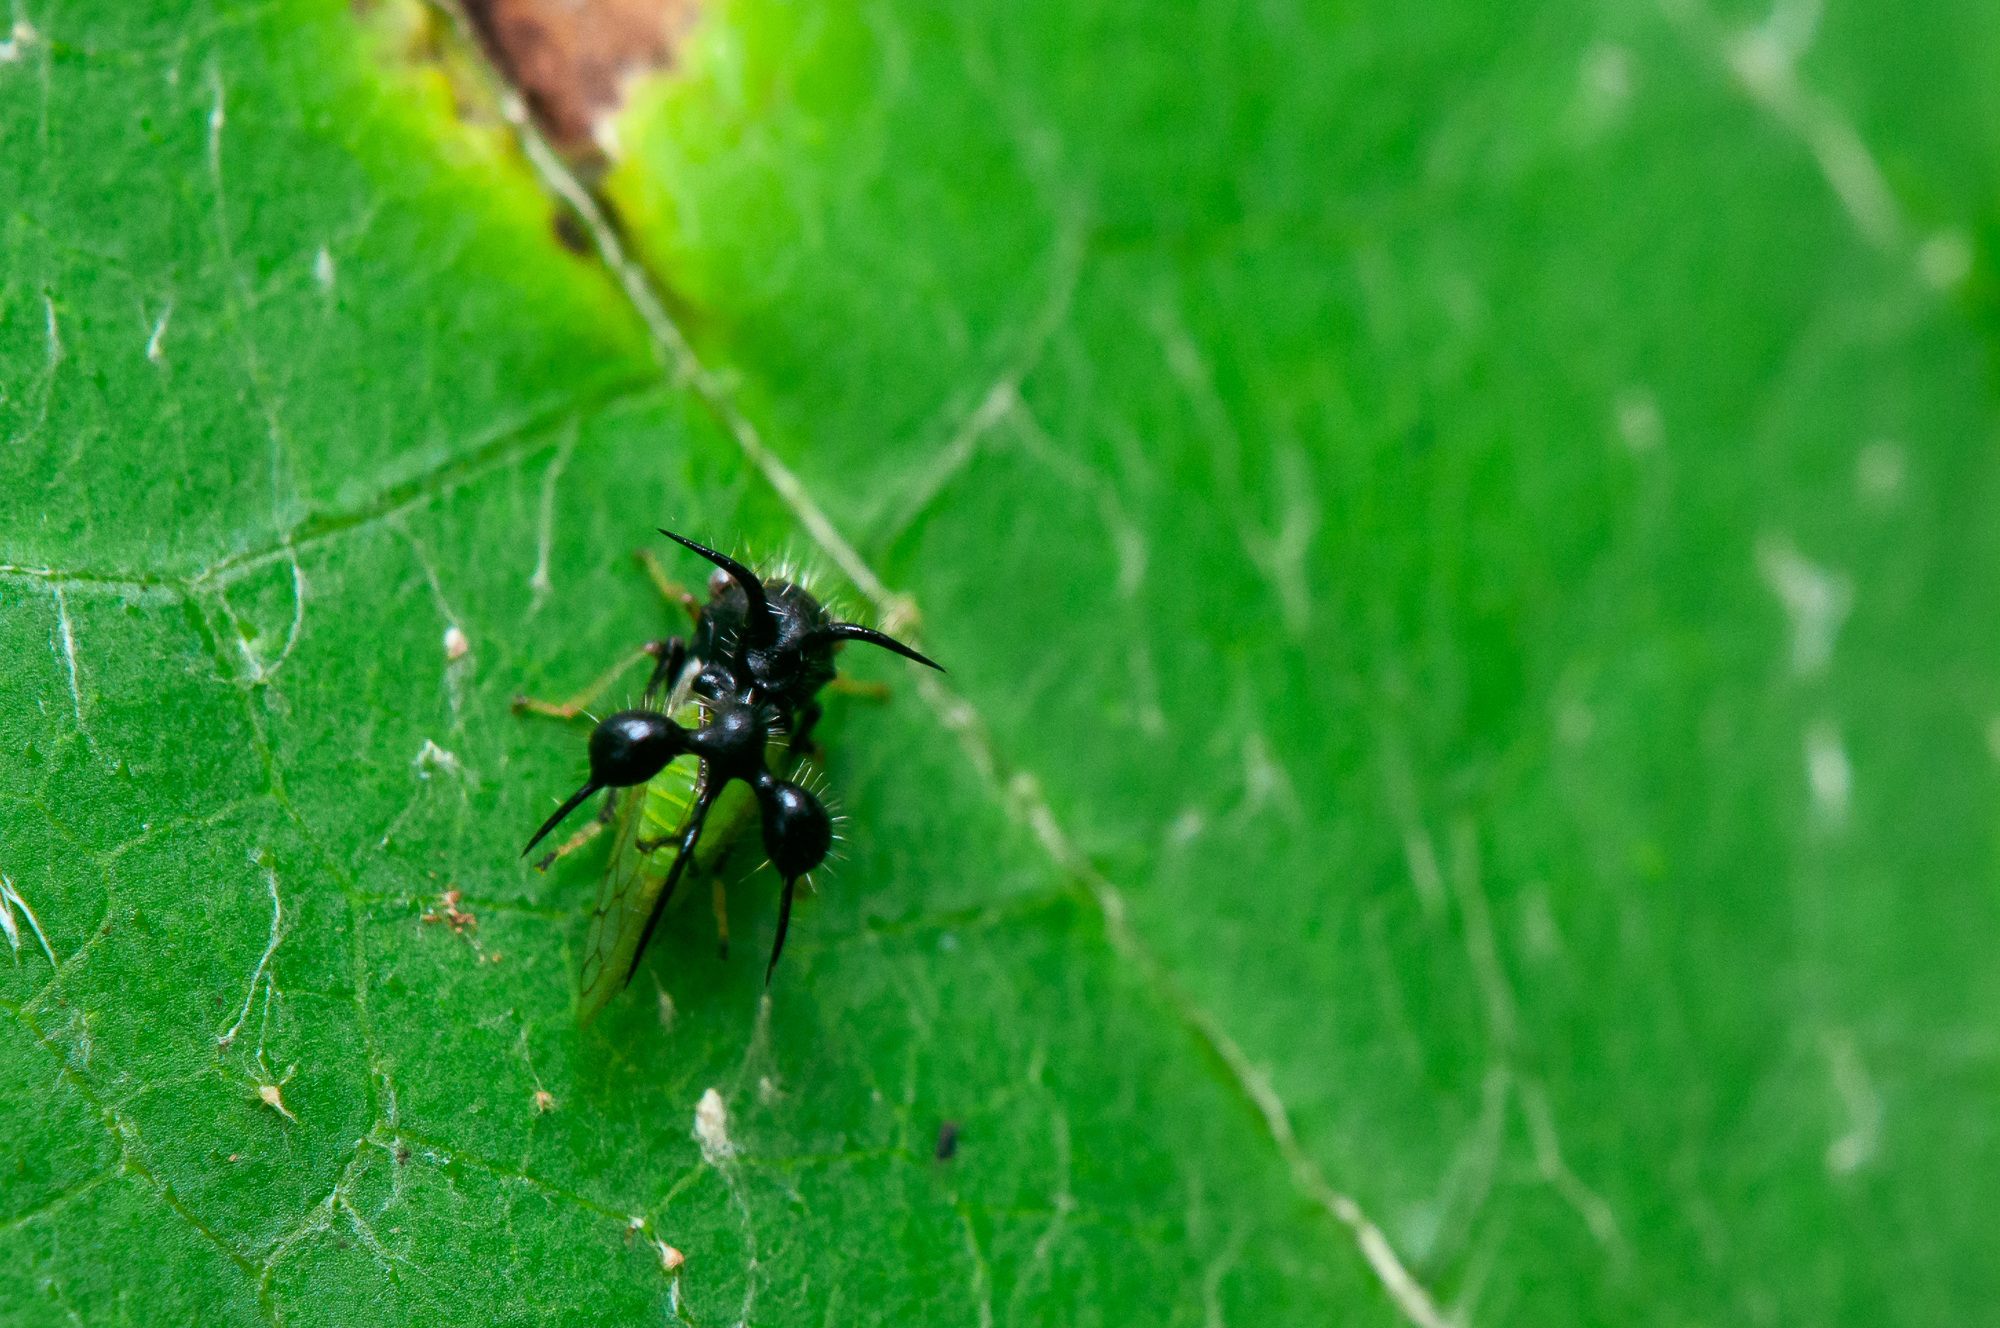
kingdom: Animalia
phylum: Arthropoda
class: Insecta
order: Hemiptera
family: Membracidae
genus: Cyphonia
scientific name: Cyphonia clavata
